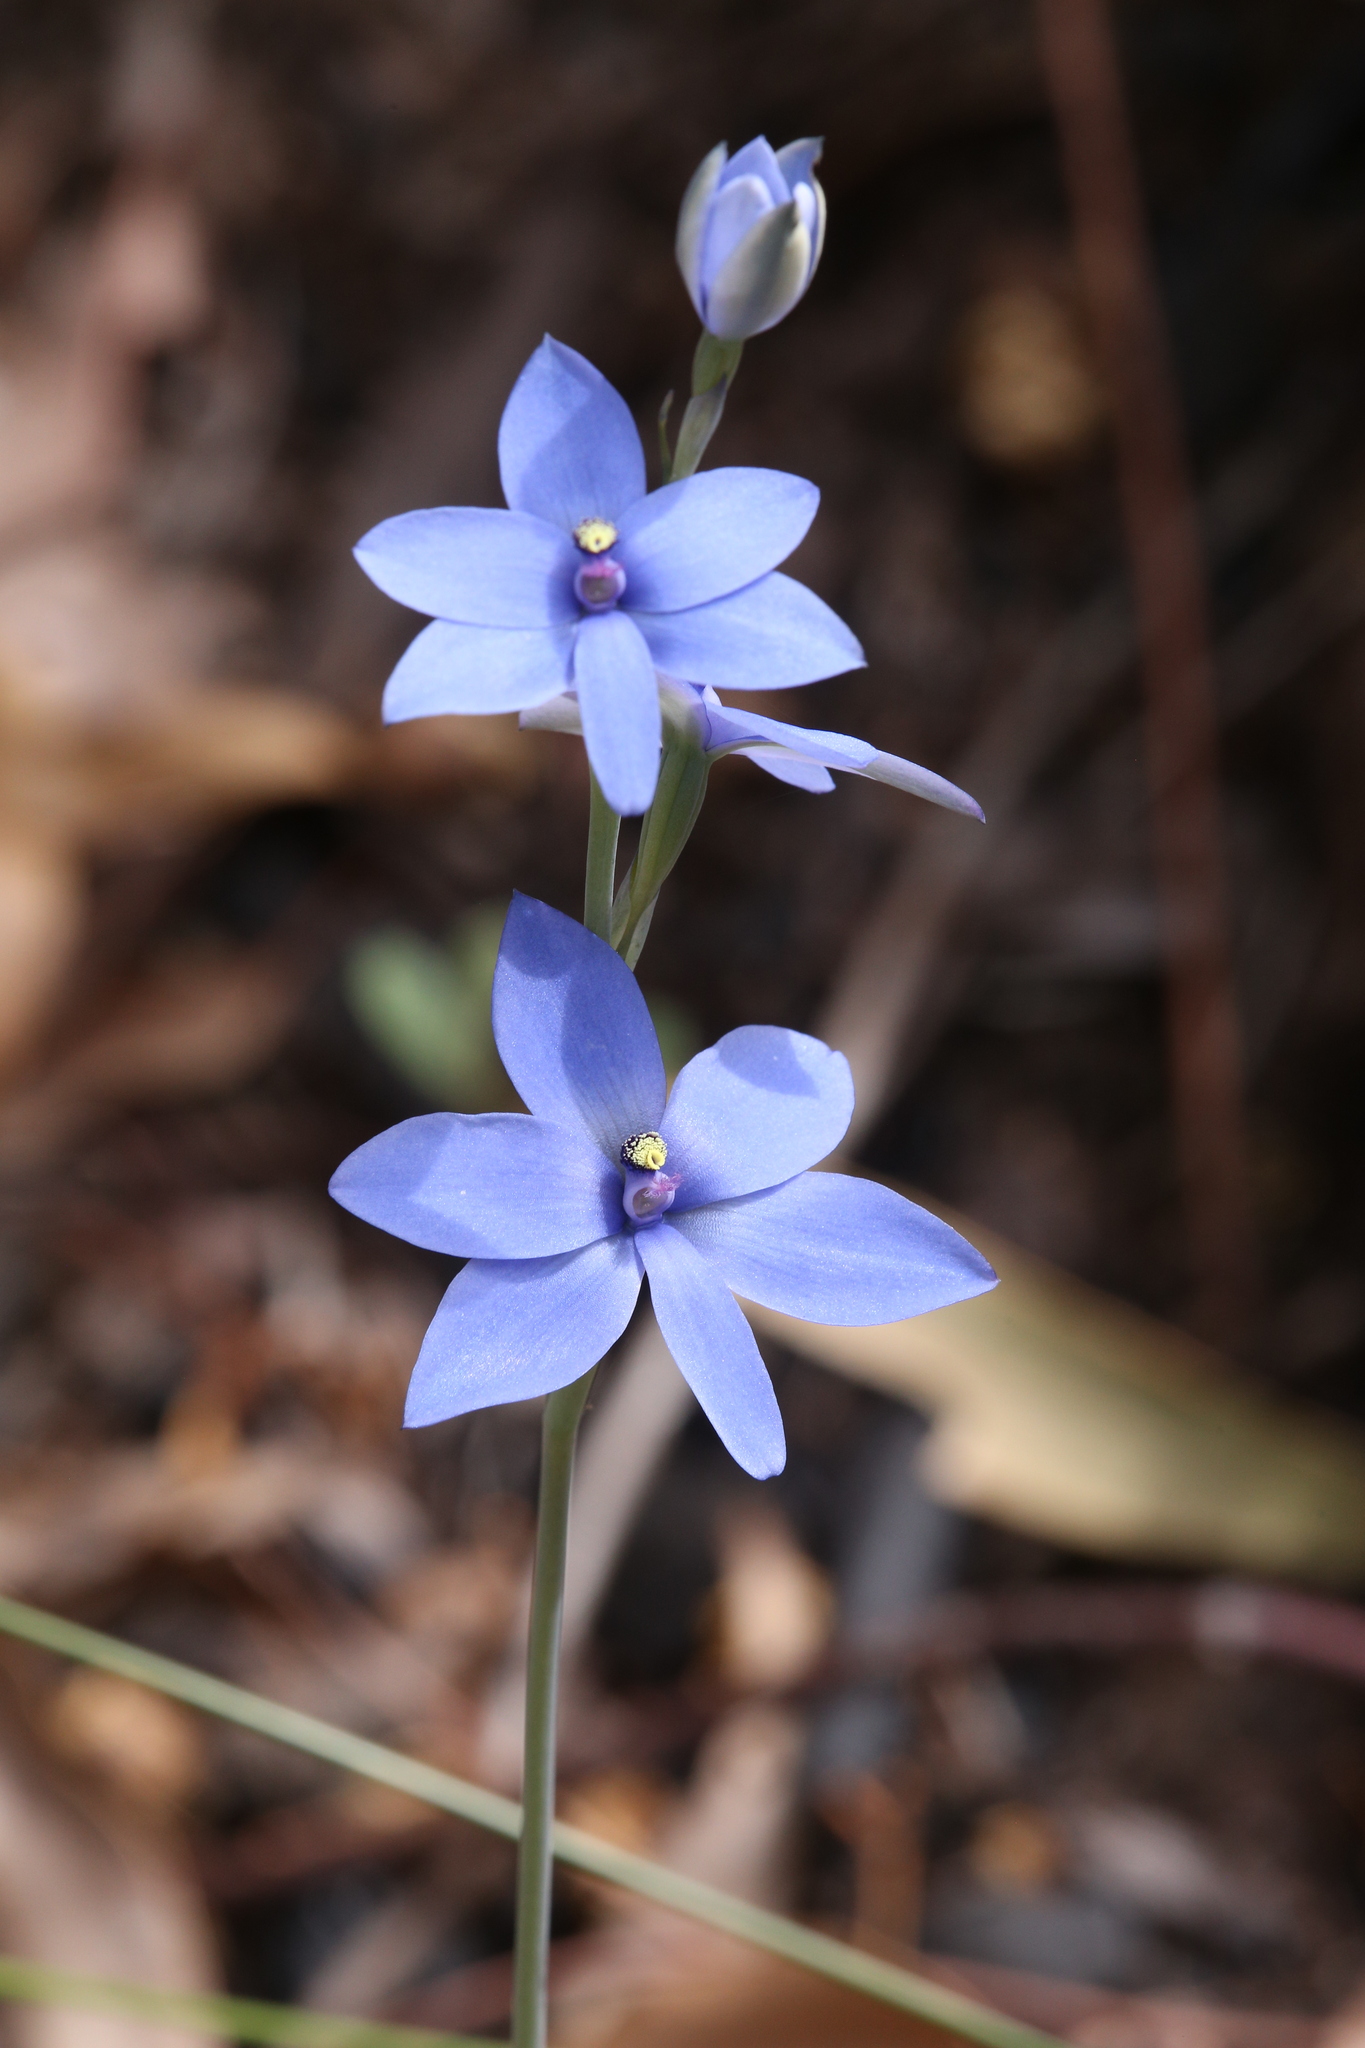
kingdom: Plantae
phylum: Tracheophyta
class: Liliopsida
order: Asparagales
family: Orchidaceae
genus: Thelymitra
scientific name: Thelymitra crinita
